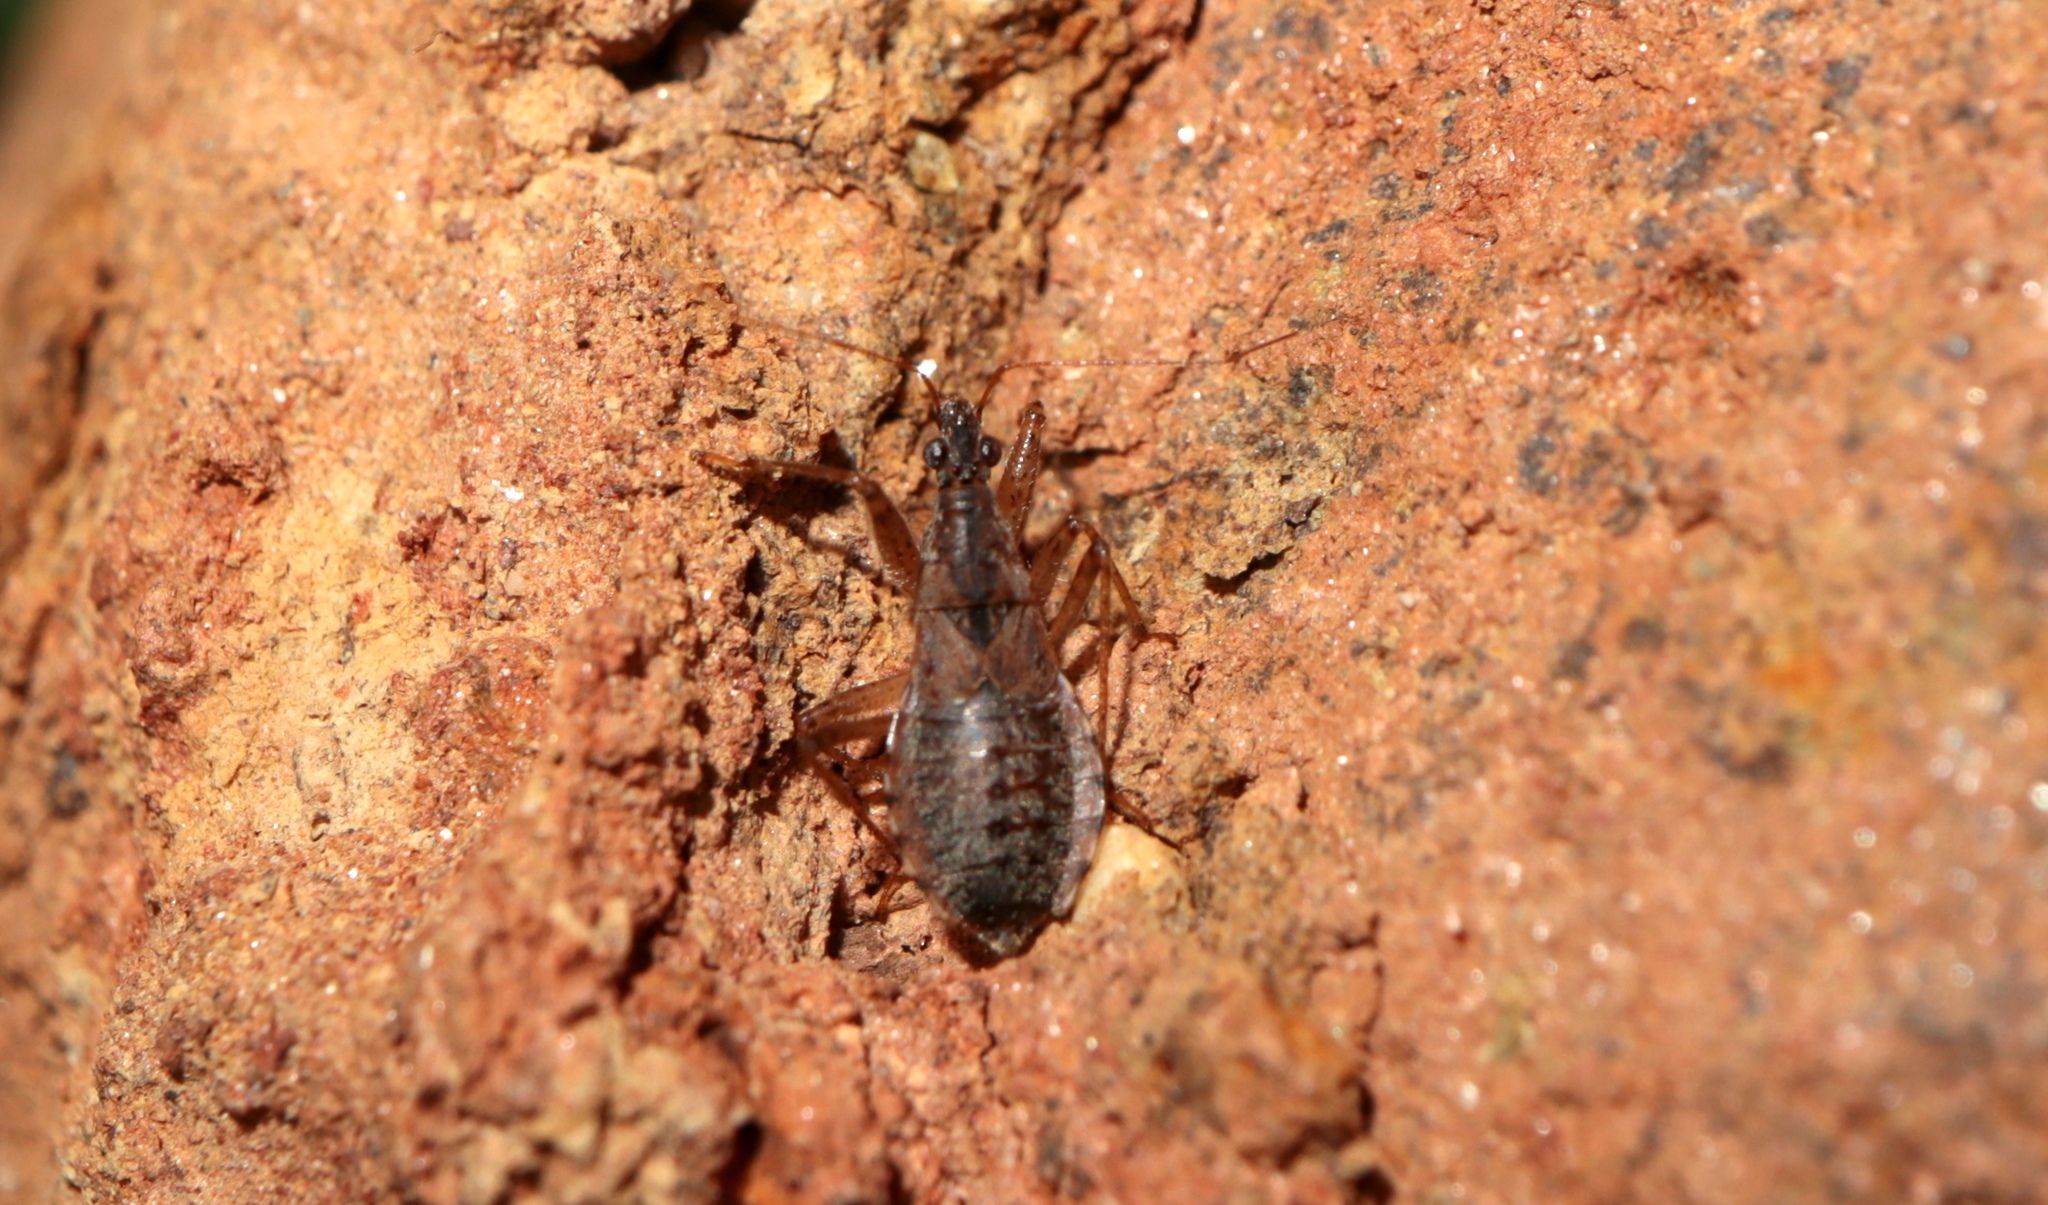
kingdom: Animalia
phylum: Arthropoda
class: Insecta
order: Hemiptera
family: Nabidae
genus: Hoplistoscelis
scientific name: Hoplistoscelis pallescens
